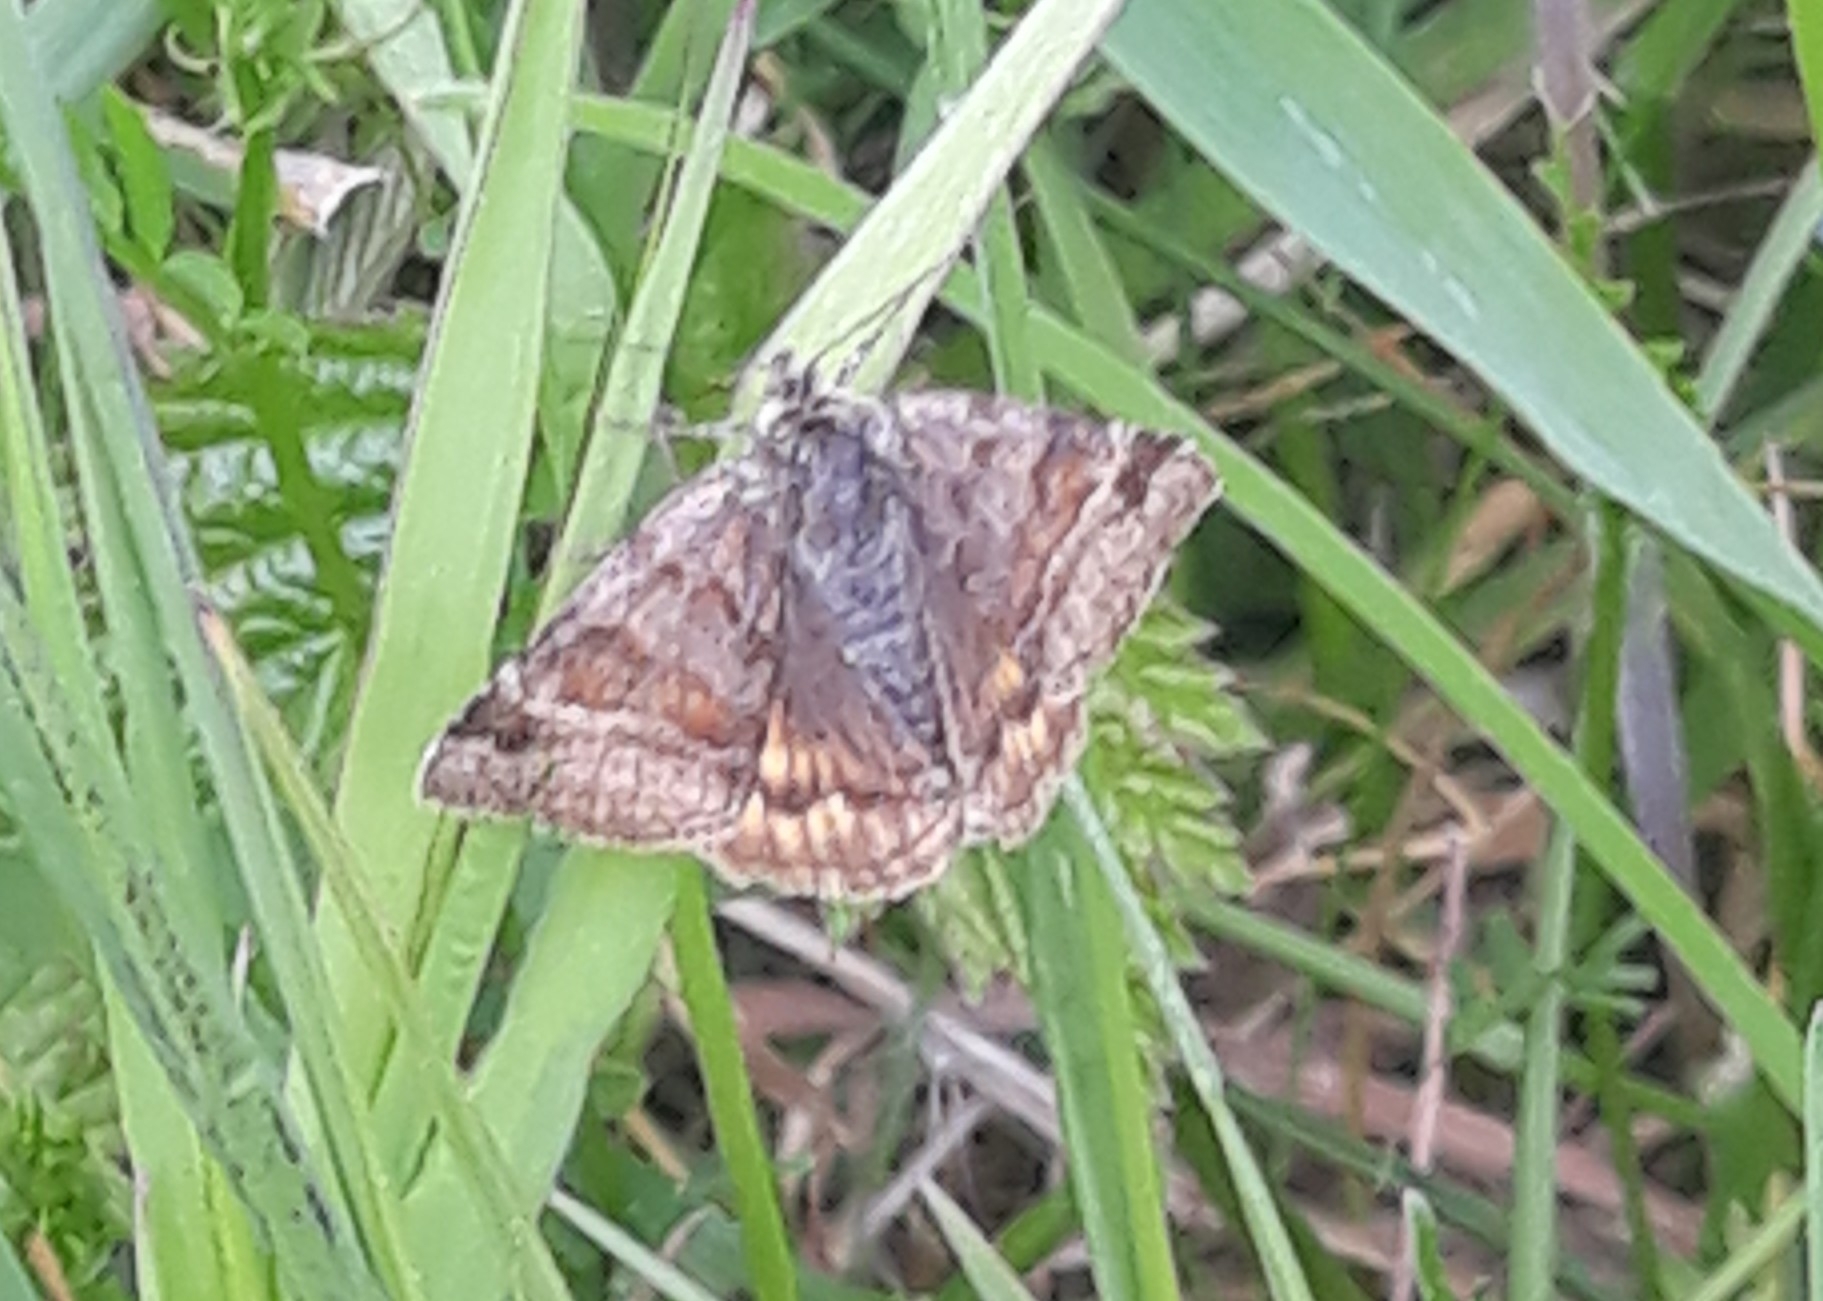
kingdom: Animalia
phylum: Arthropoda
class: Insecta
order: Lepidoptera
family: Erebidae
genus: Euclidia
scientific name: Euclidia glyphica
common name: Burnet companion
